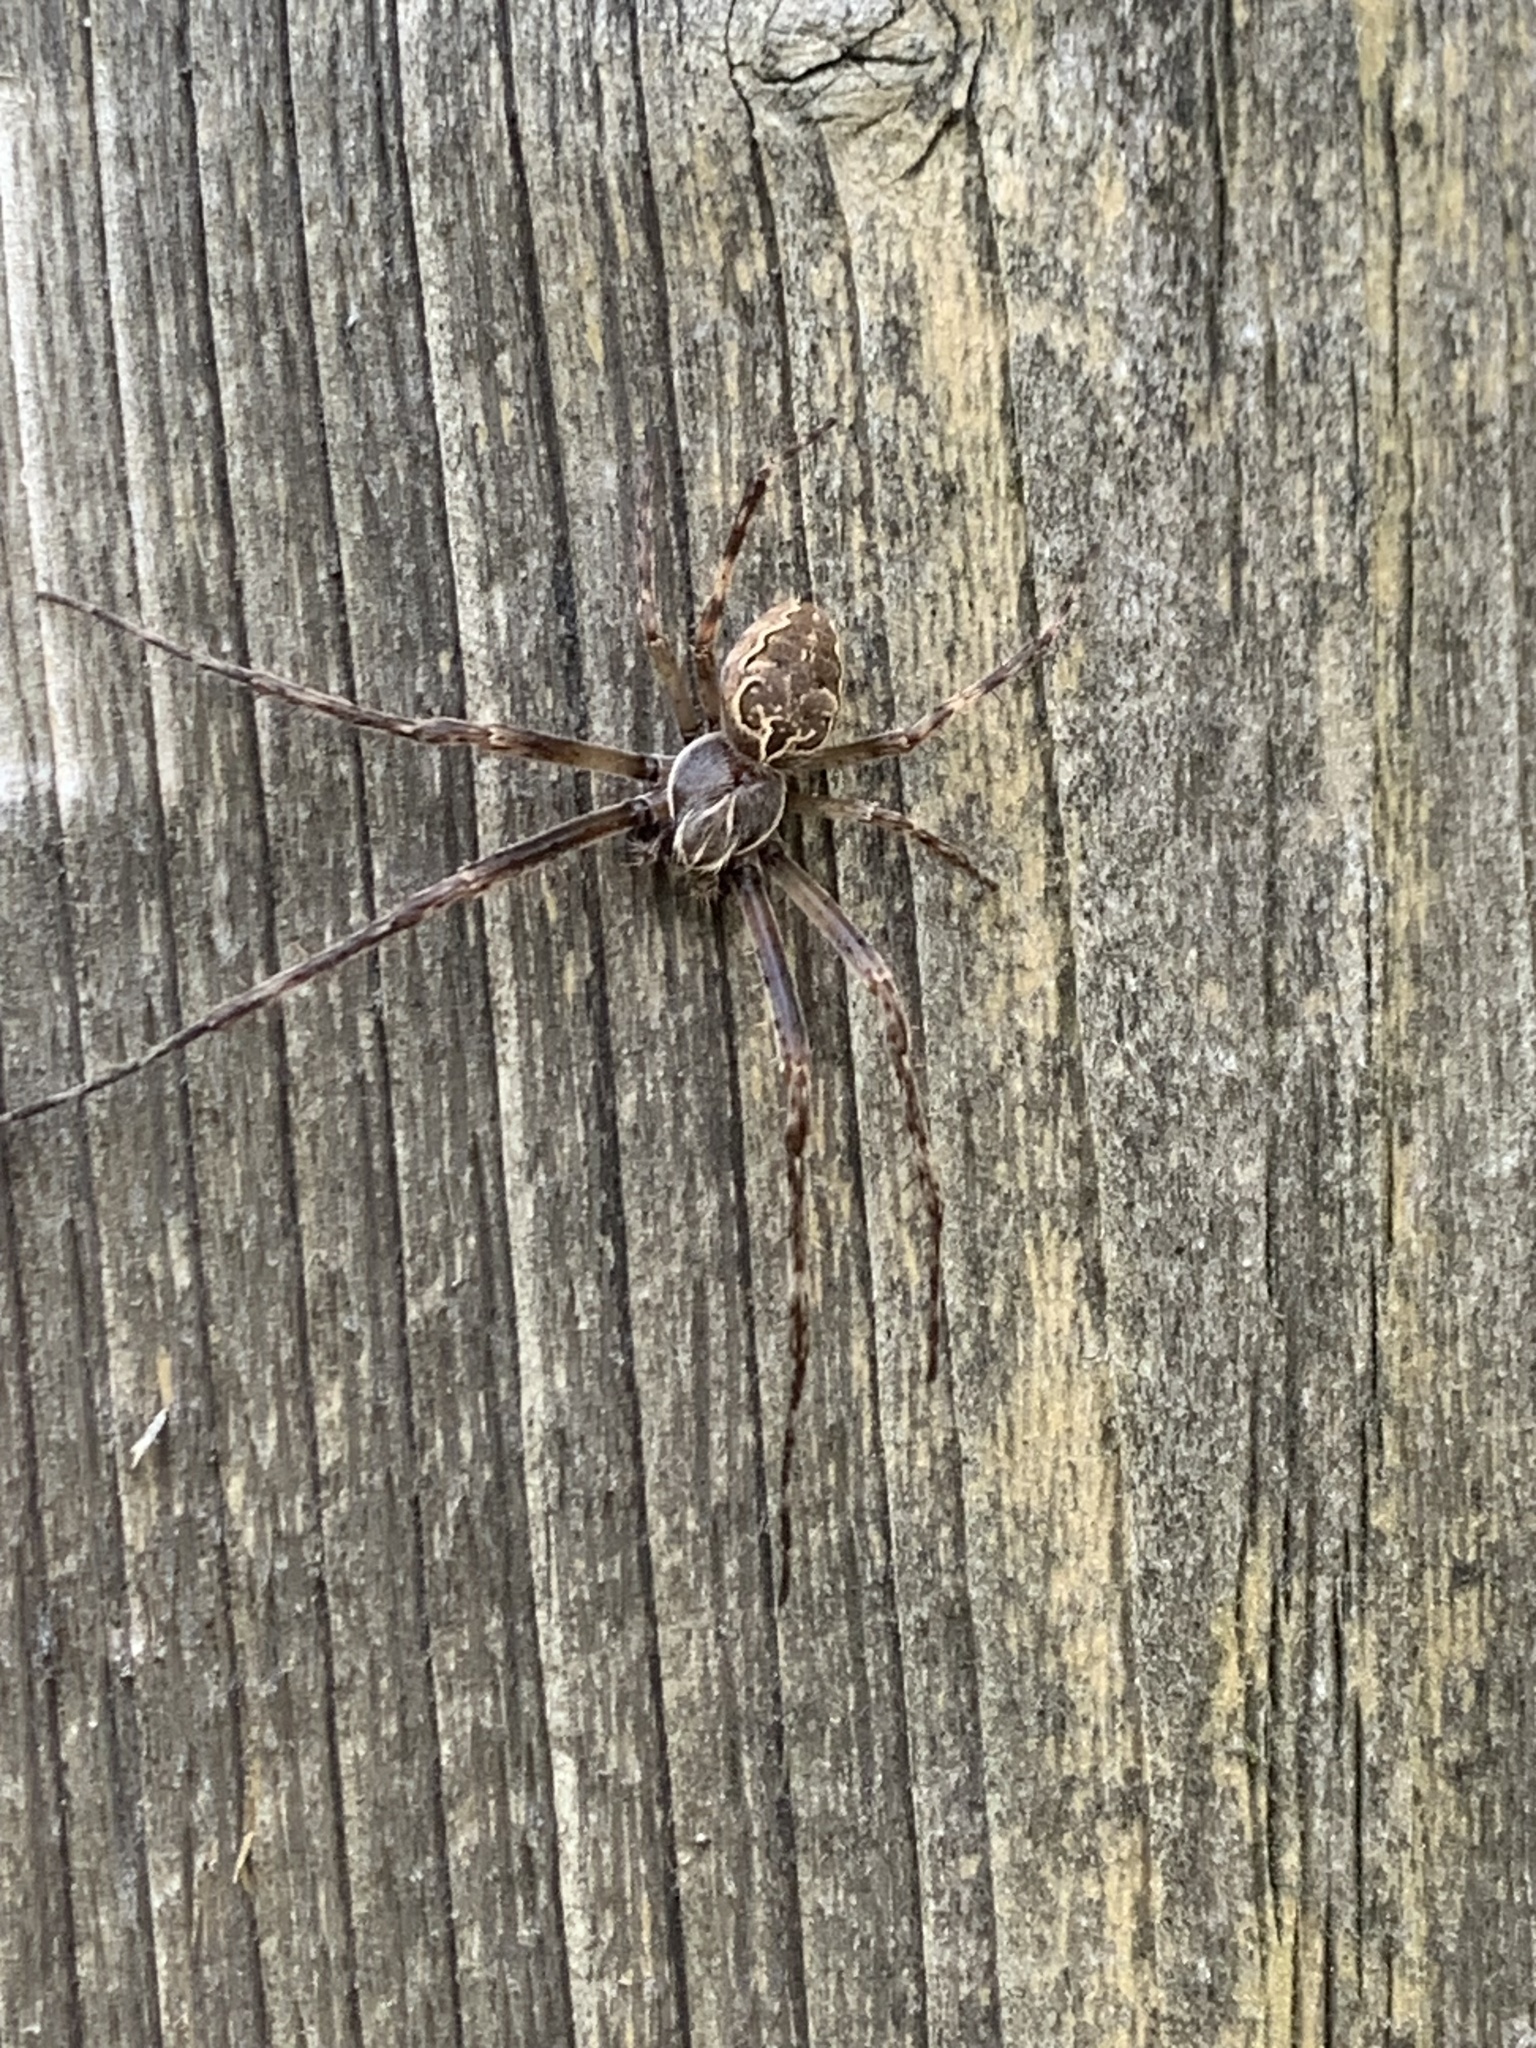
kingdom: Animalia
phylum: Arthropoda
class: Arachnida
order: Araneae
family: Araneidae
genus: Larinioides
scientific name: Larinioides sclopetarius
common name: Bridge orbweaver
